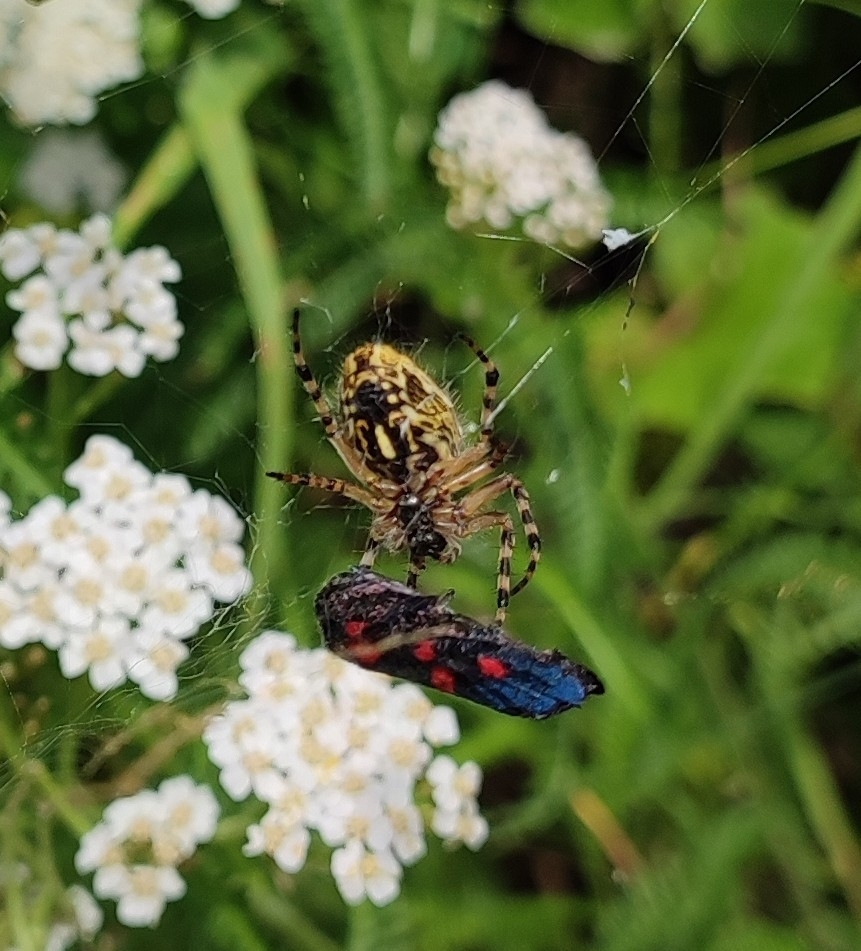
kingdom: Animalia
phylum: Arthropoda
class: Arachnida
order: Araneae
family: Araneidae
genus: Aculepeira
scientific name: Aculepeira ceropegia
